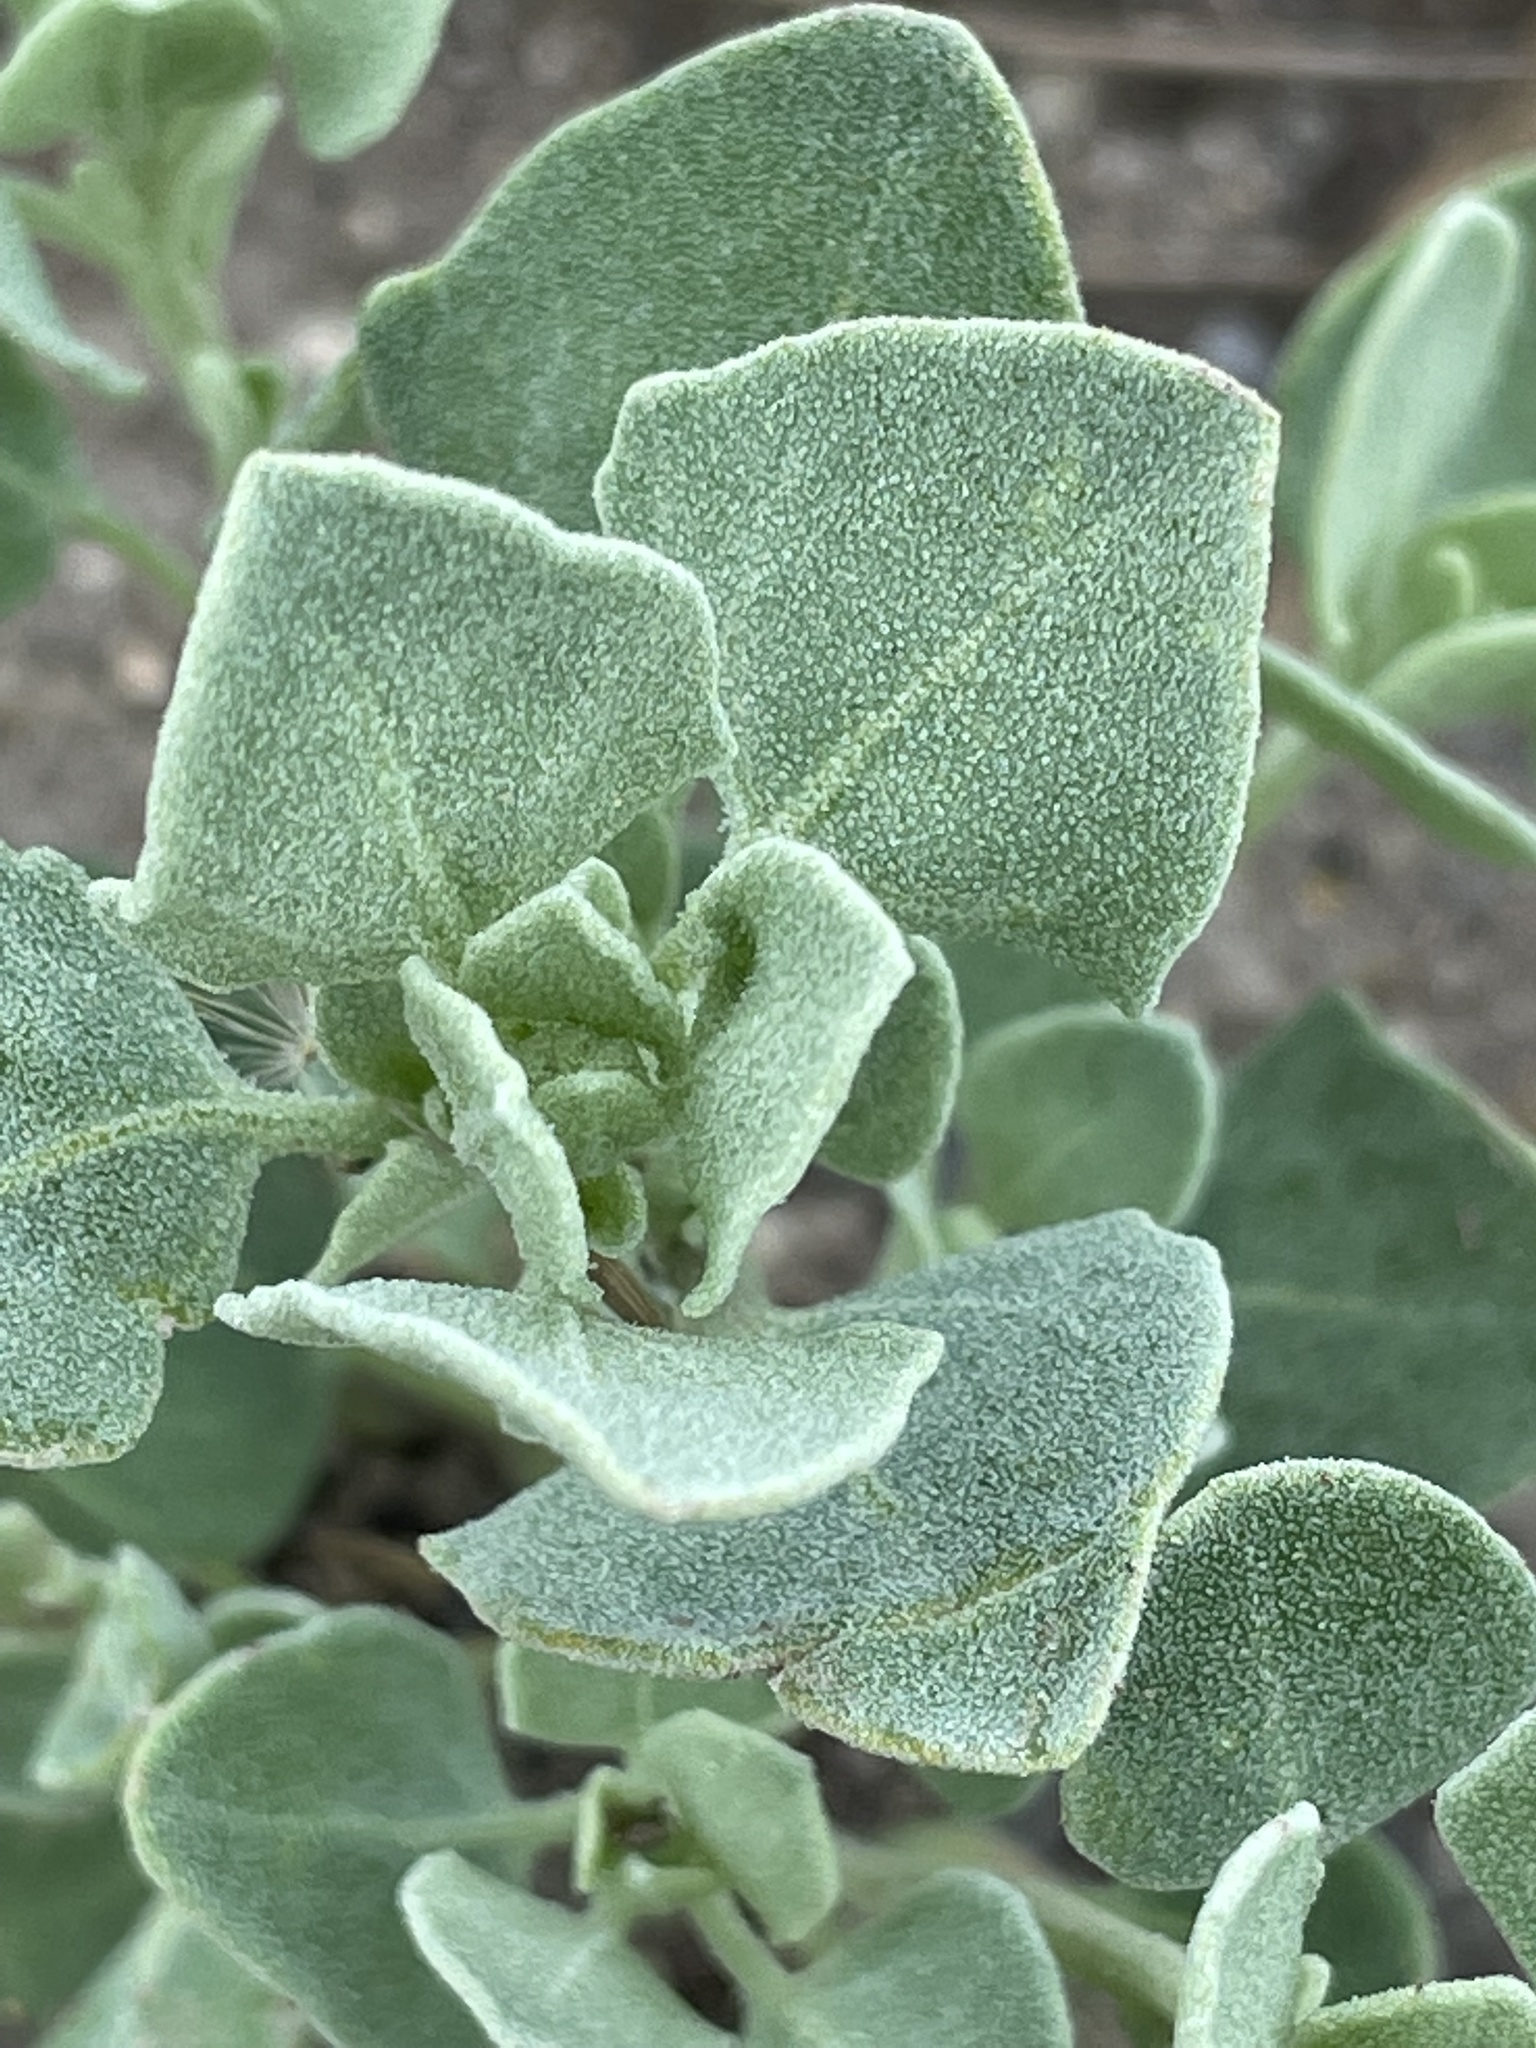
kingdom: Plantae
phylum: Tracheophyta
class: Magnoliopsida
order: Caryophyllales
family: Amaranthaceae
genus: Chenopodium
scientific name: Chenopodium incanum
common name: Hoary goosefoot
